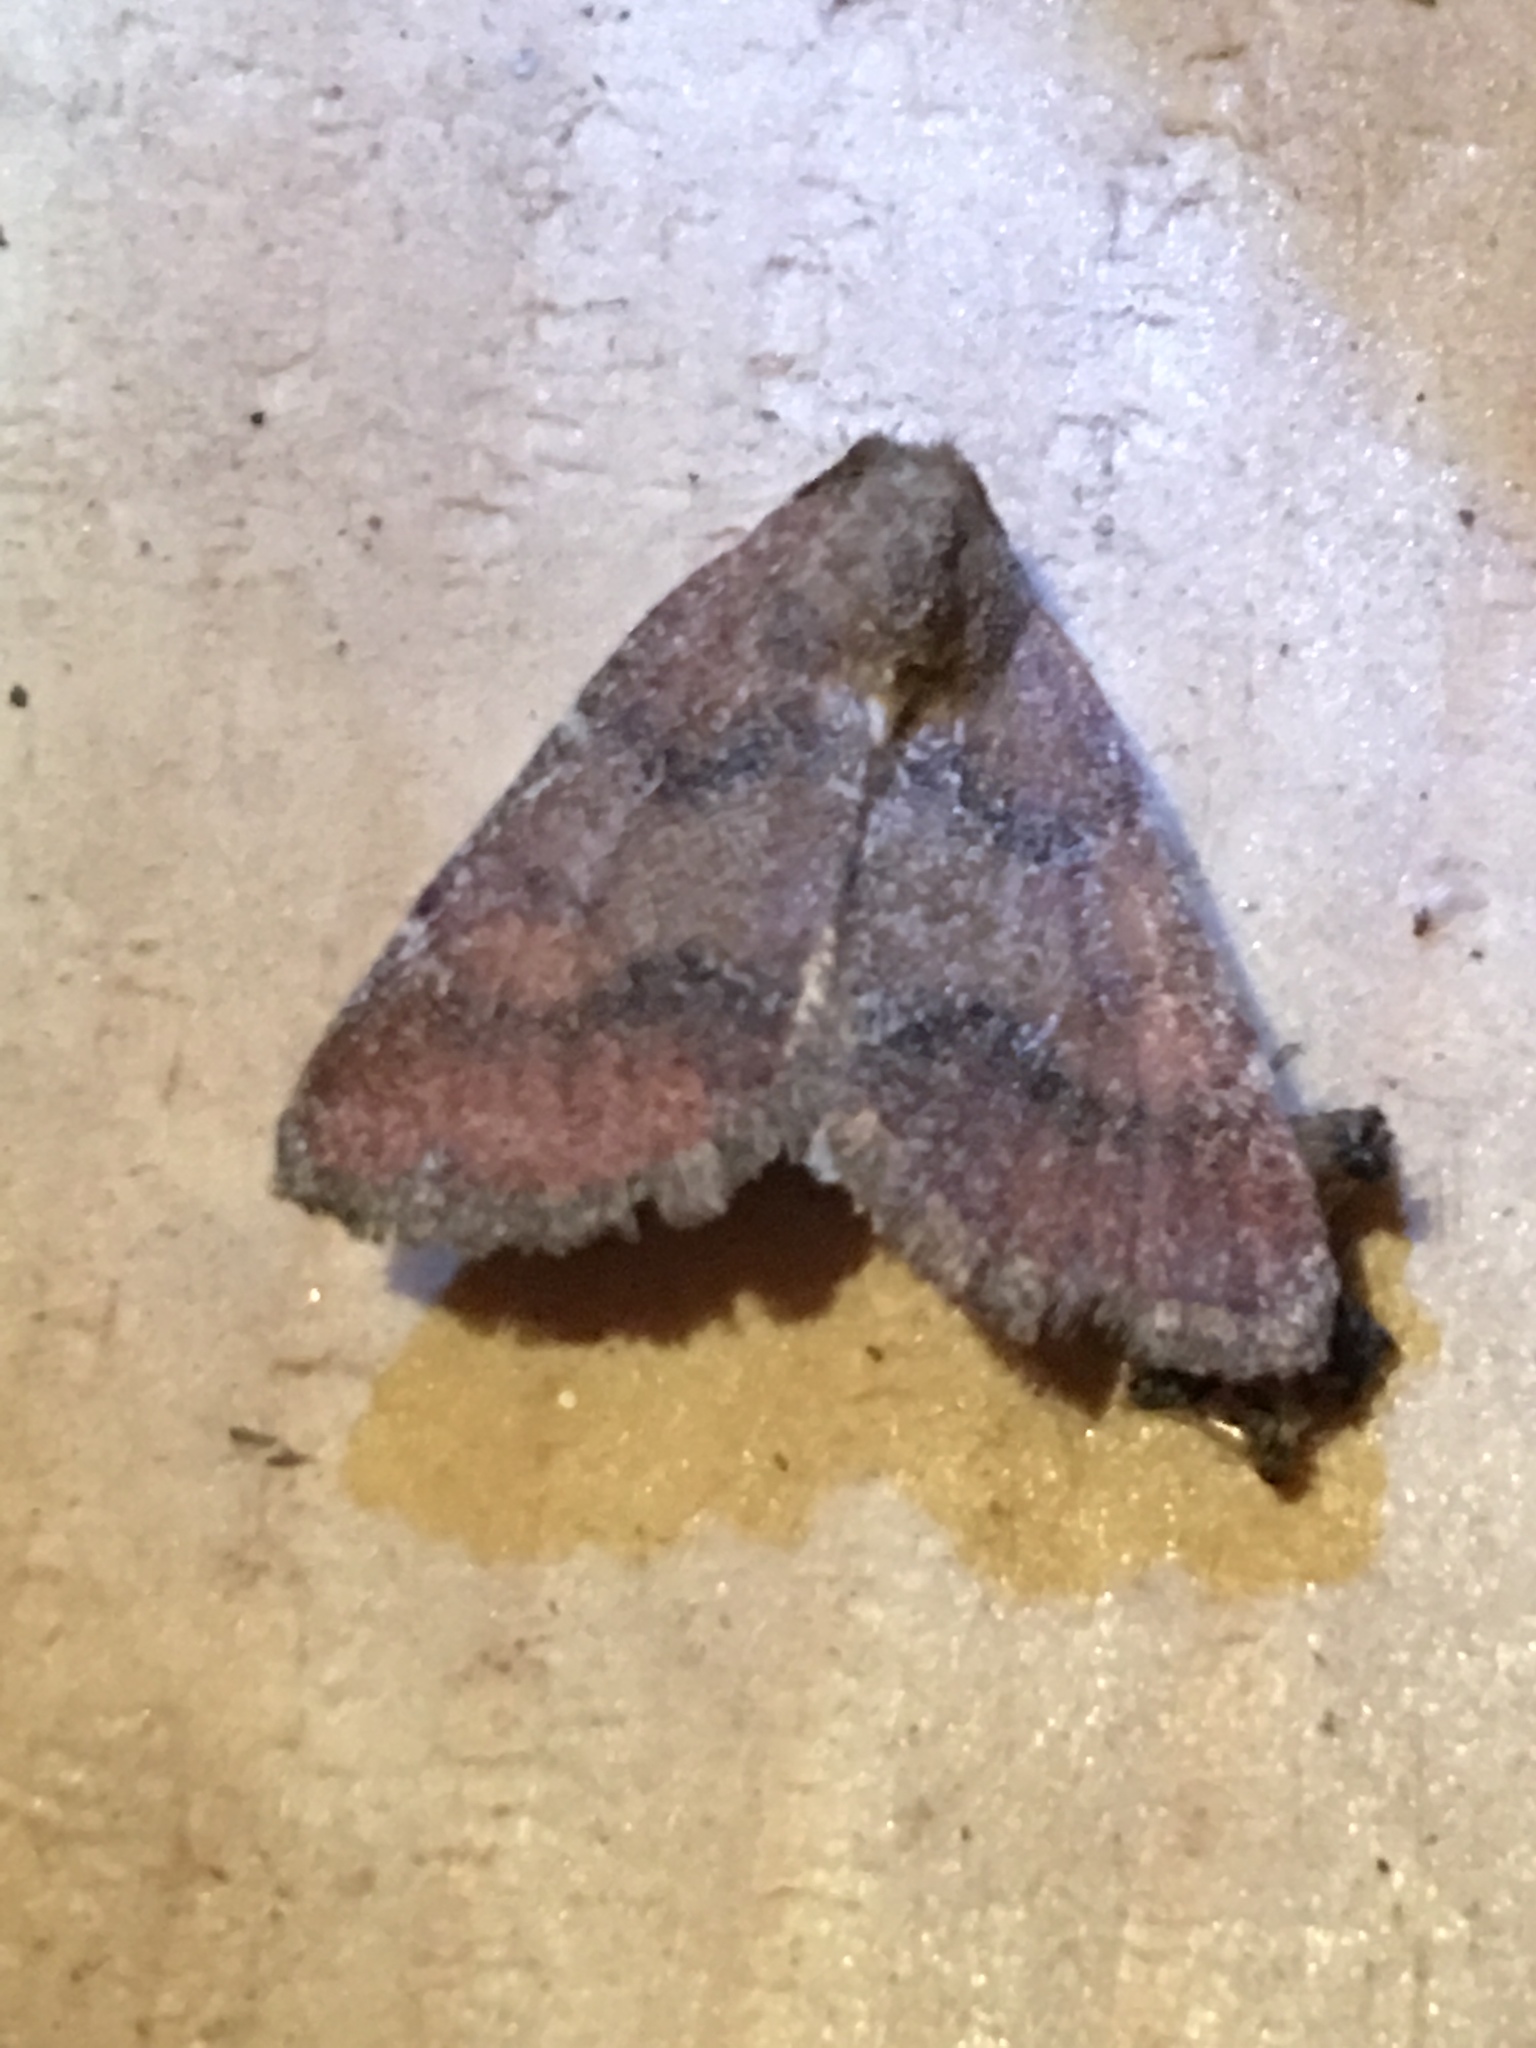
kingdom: Animalia
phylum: Arthropoda
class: Insecta
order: Lepidoptera
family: Noctuidae
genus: Schinia
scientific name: Schinia saturata
